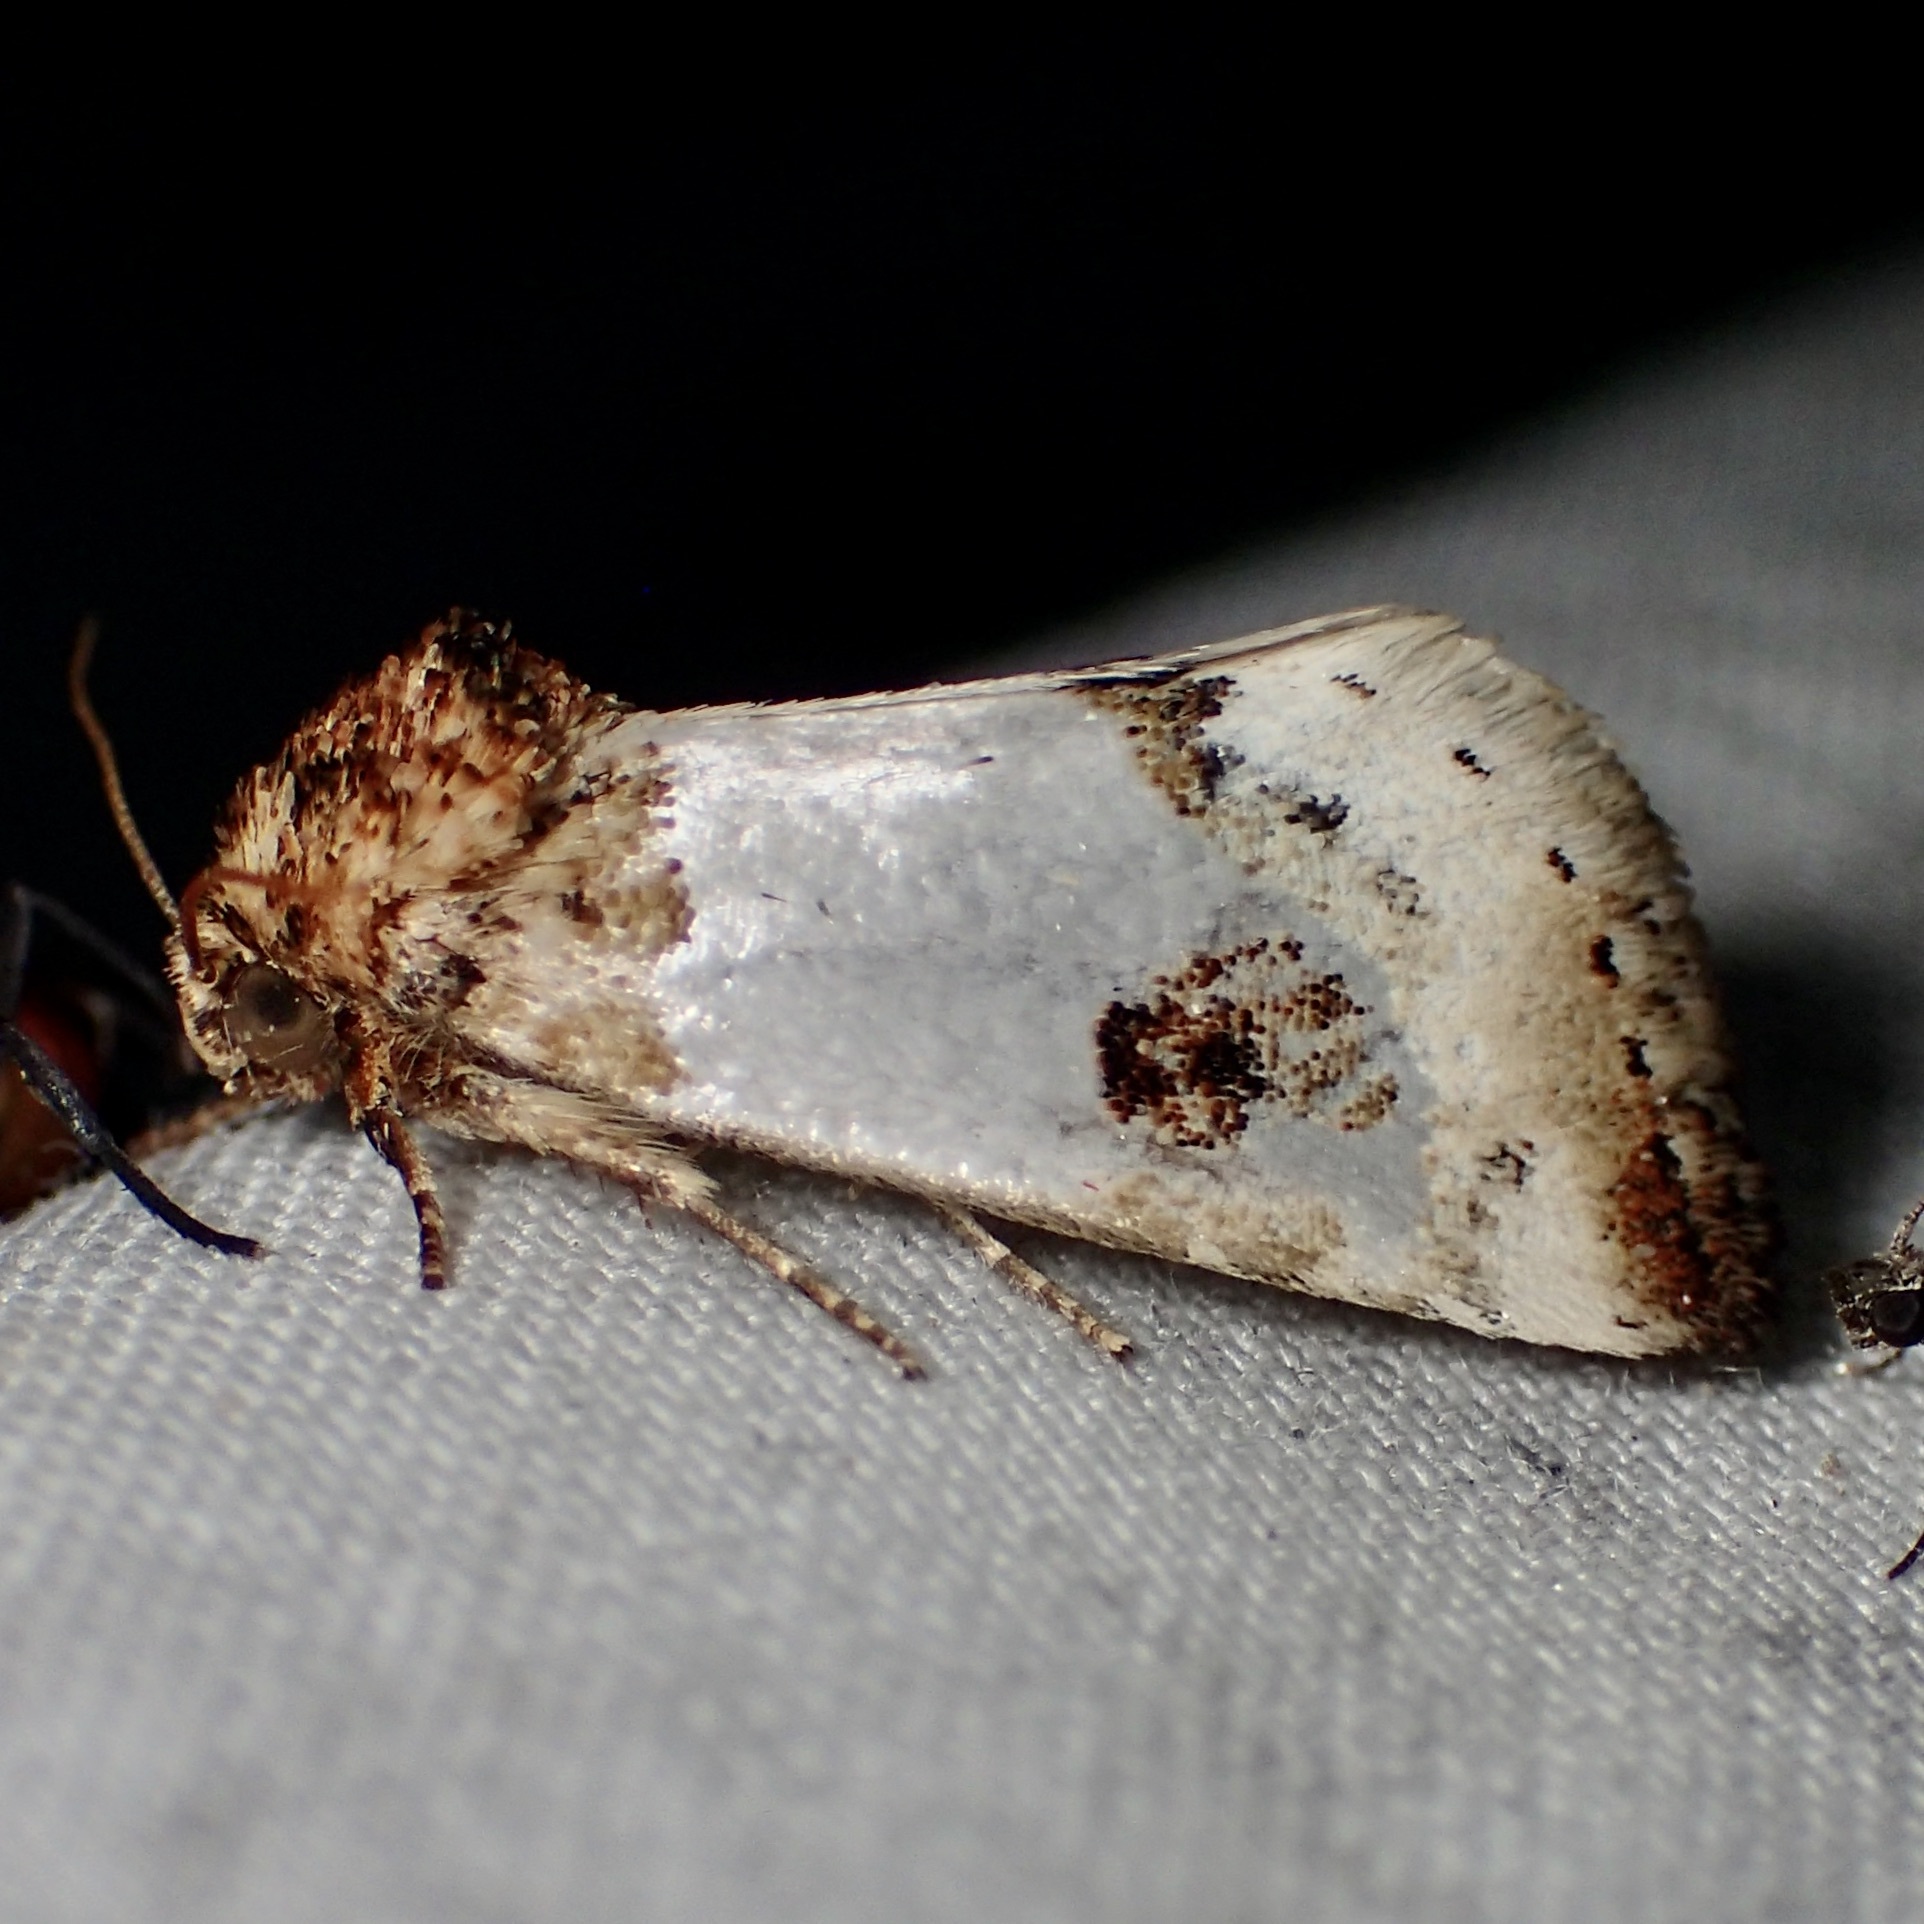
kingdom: Animalia
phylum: Arthropoda
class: Insecta
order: Lepidoptera
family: Noctuidae
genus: Schinia
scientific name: Schinia oculata
